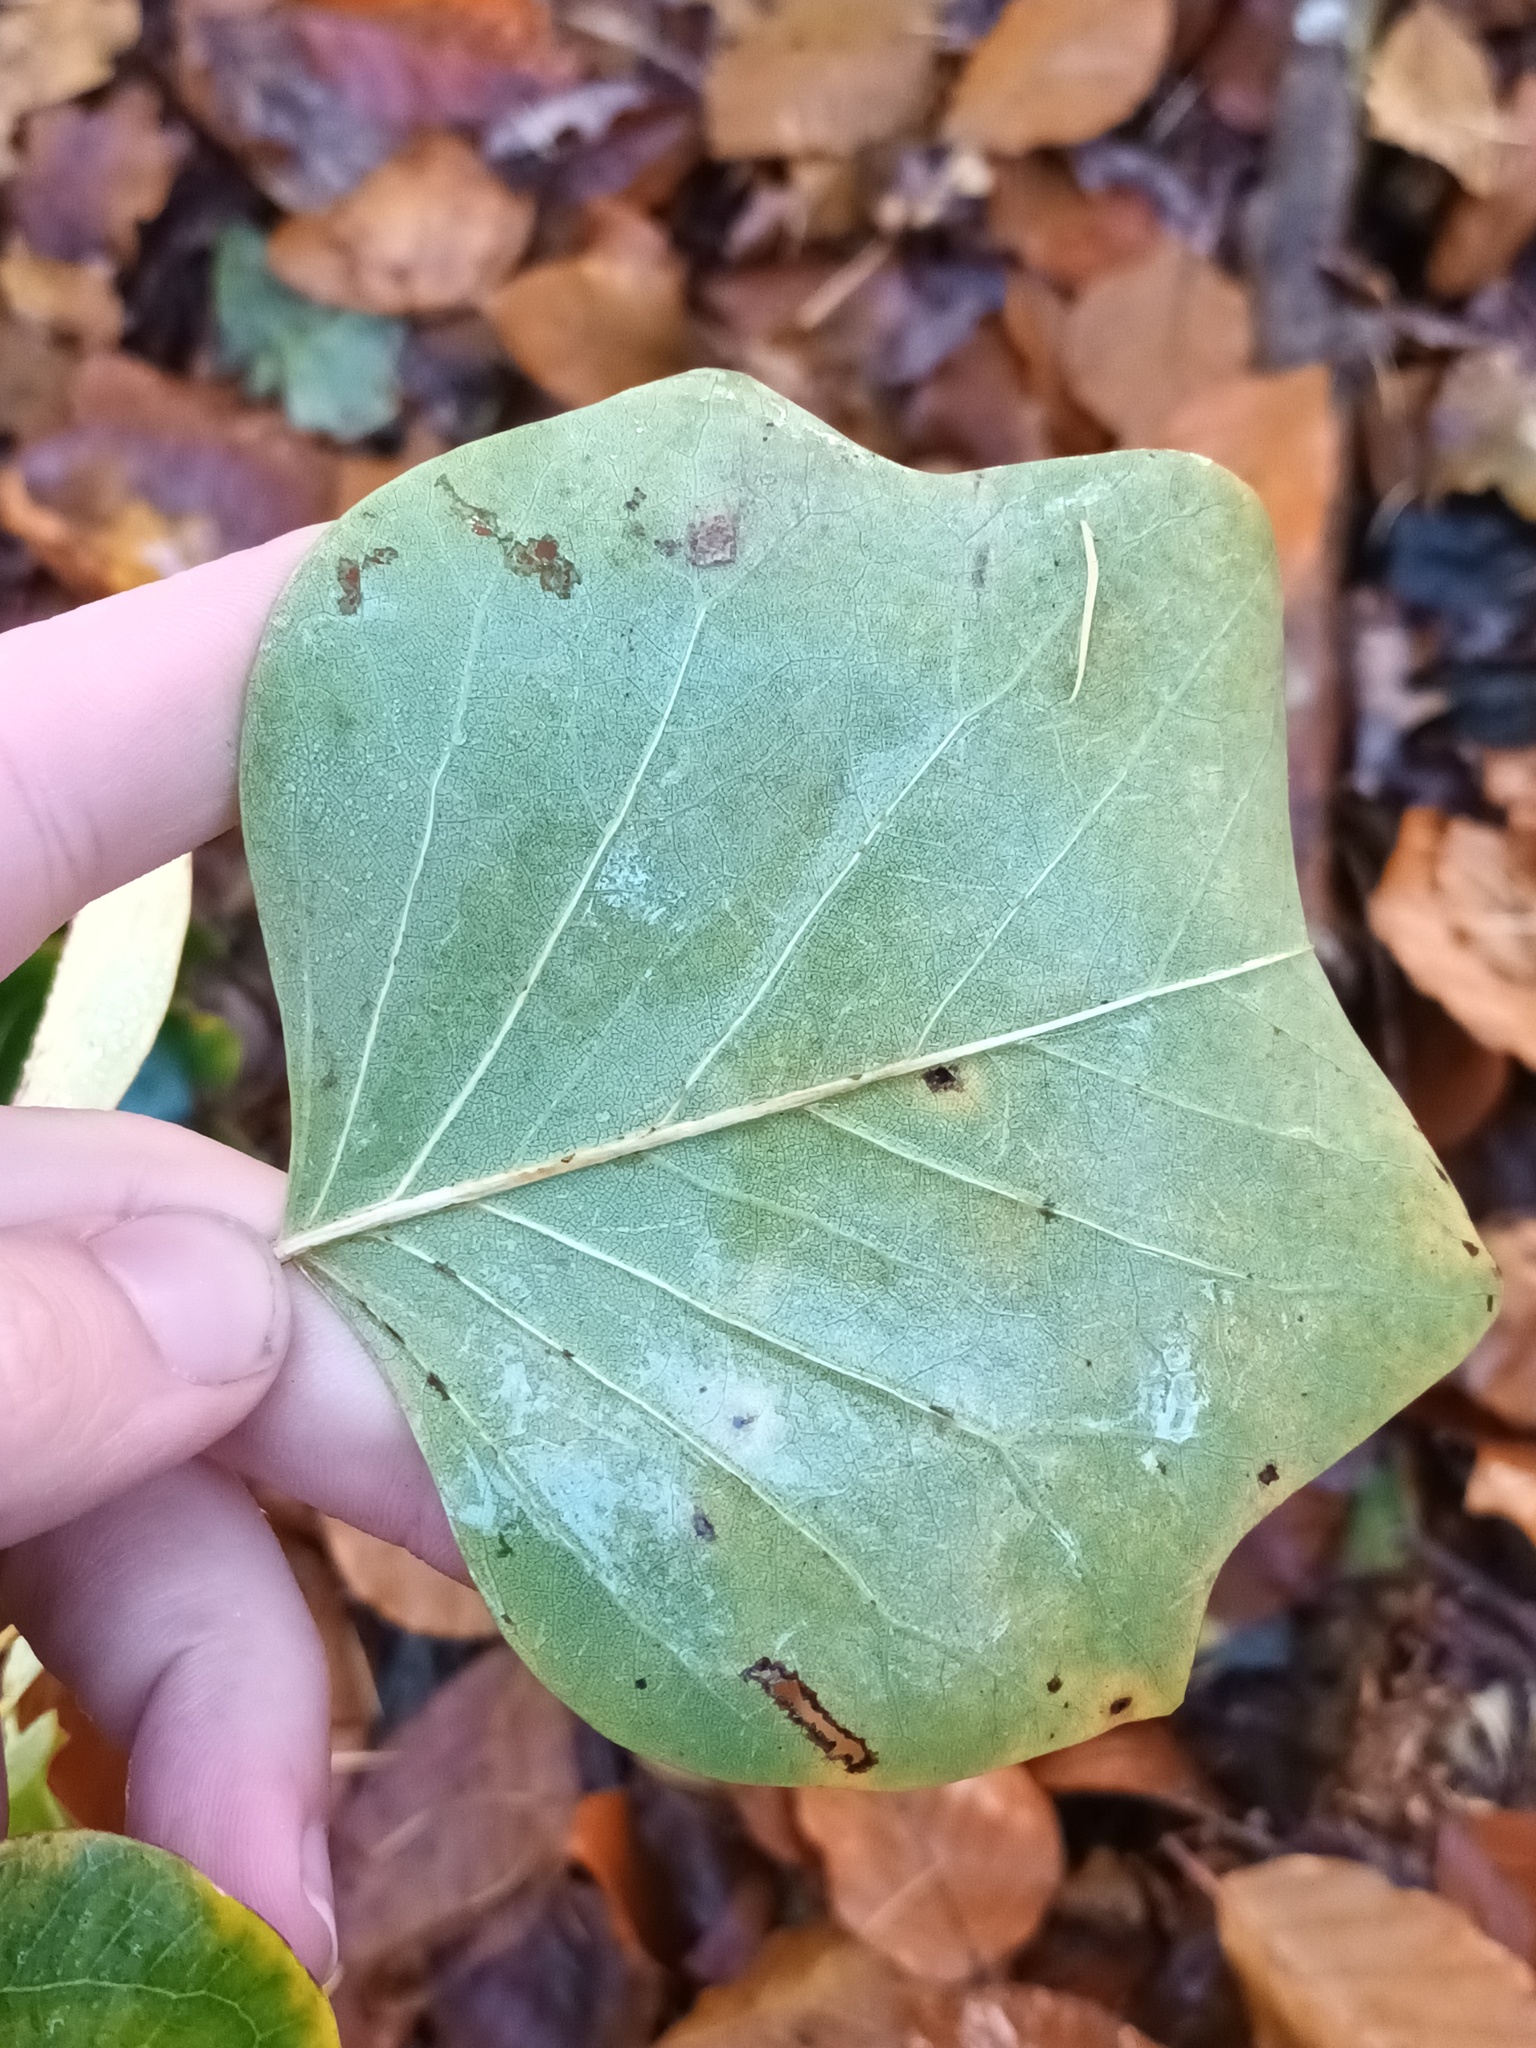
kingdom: Plantae
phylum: Tracheophyta
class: Magnoliopsida
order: Magnoliales
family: Magnoliaceae
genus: Liriodendron
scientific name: Liriodendron tulipifera
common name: Tulip tree
